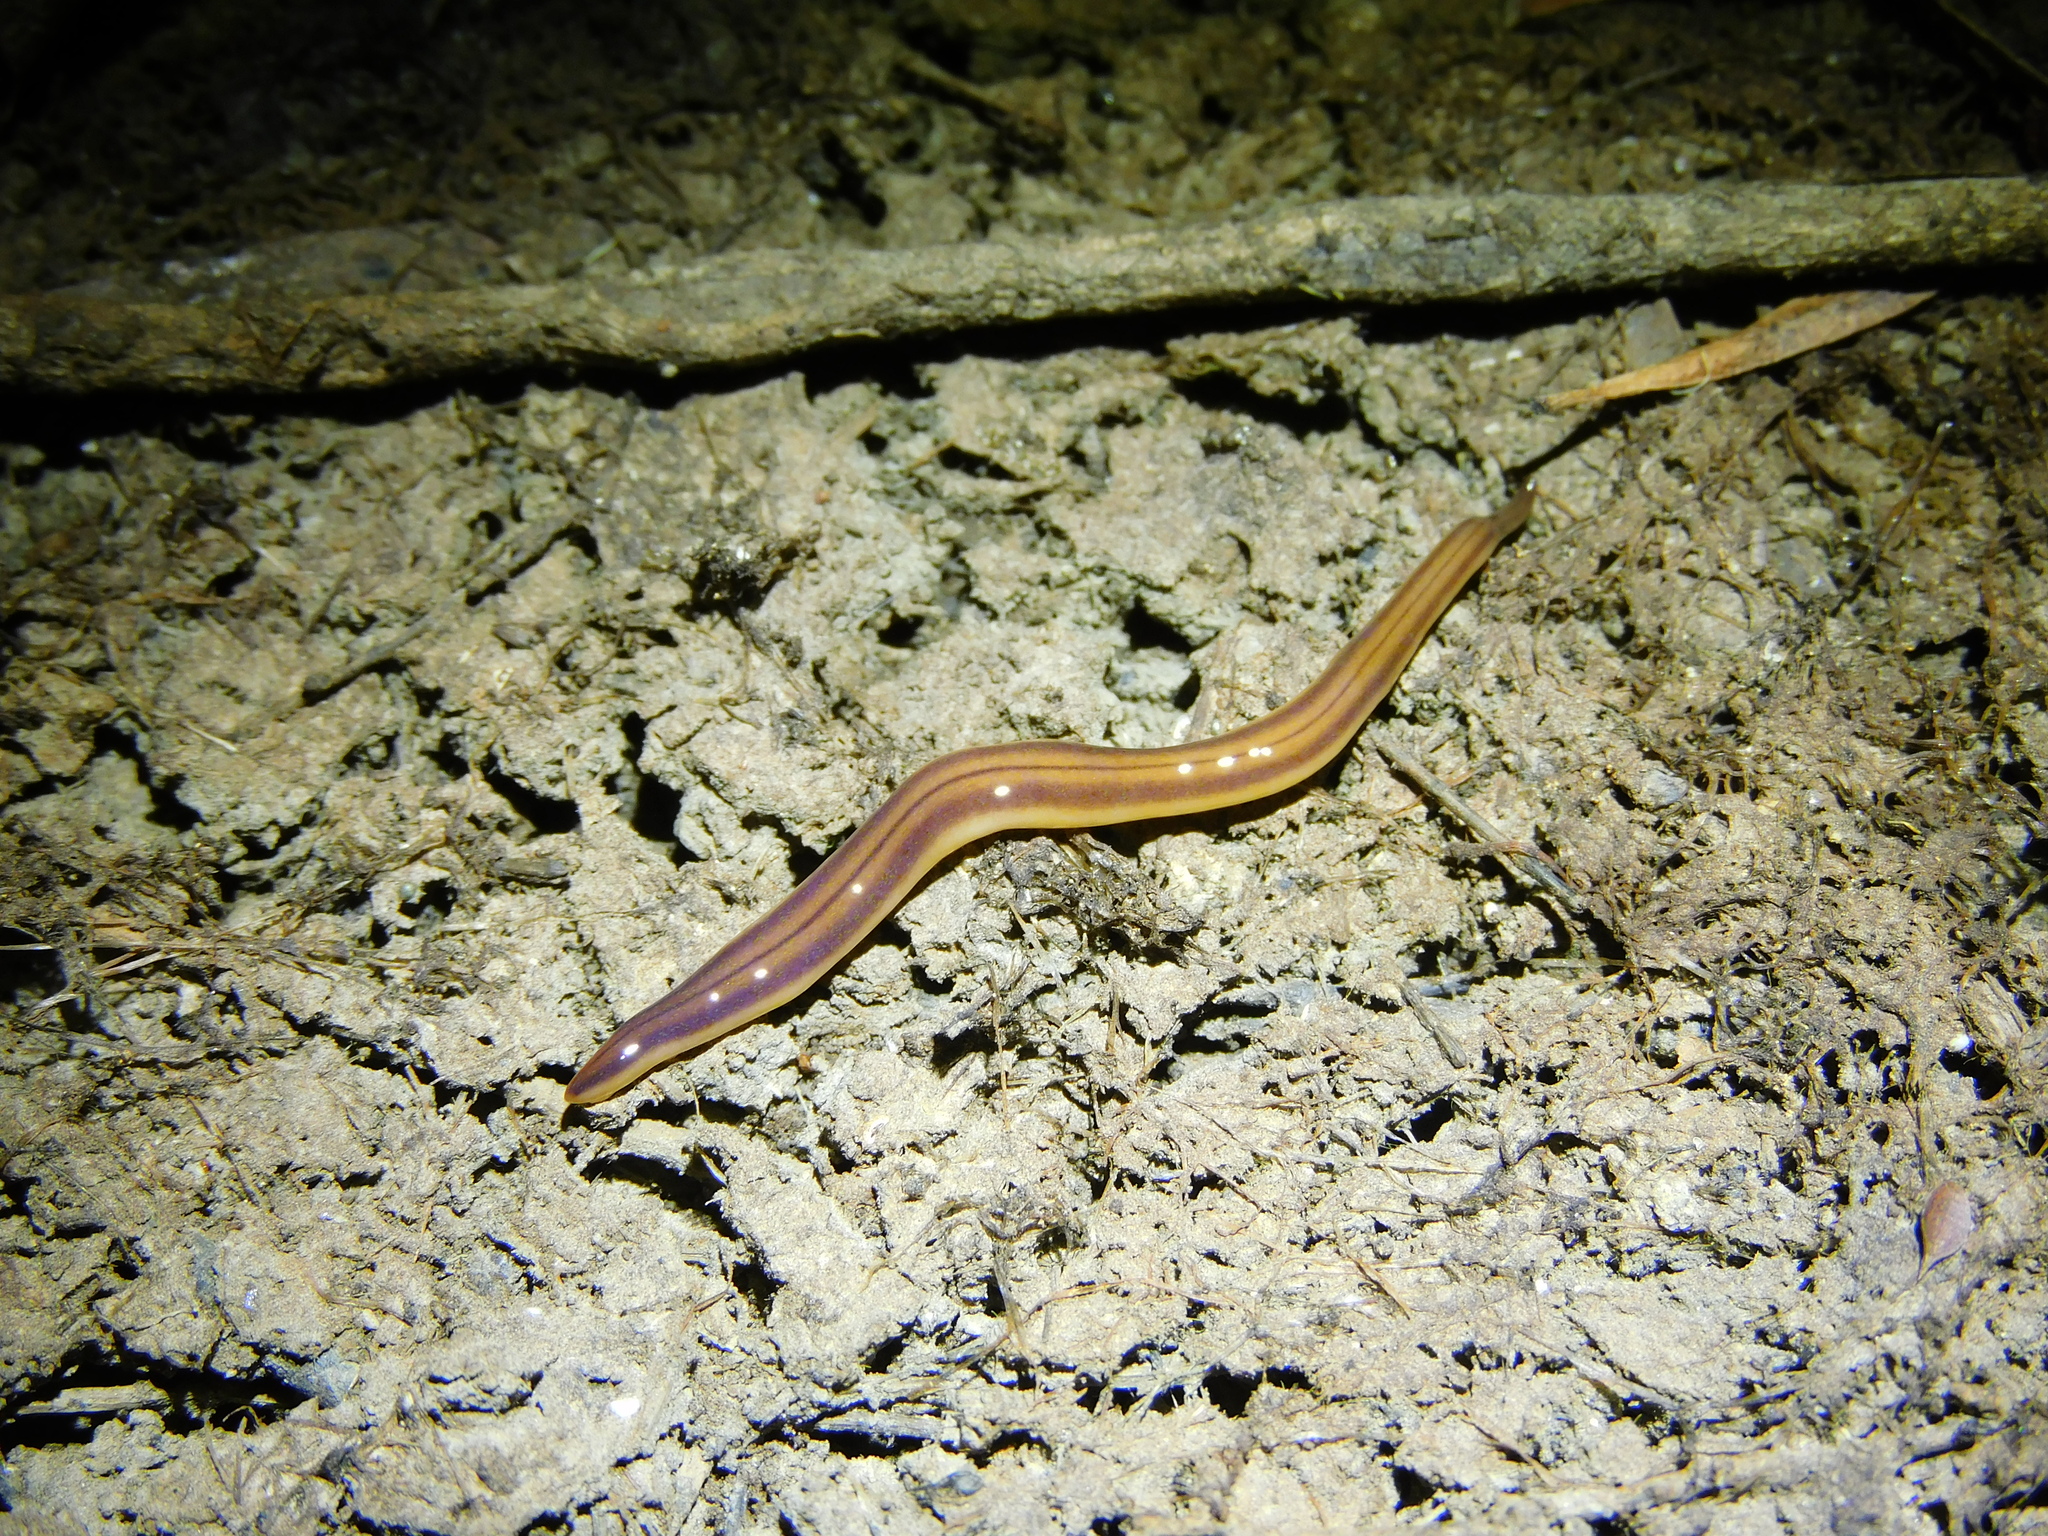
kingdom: Animalia
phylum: Platyhelminthes
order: Tricladida
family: Geoplanidae
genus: Tasmanoplana
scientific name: Tasmanoplana tasmaniana
